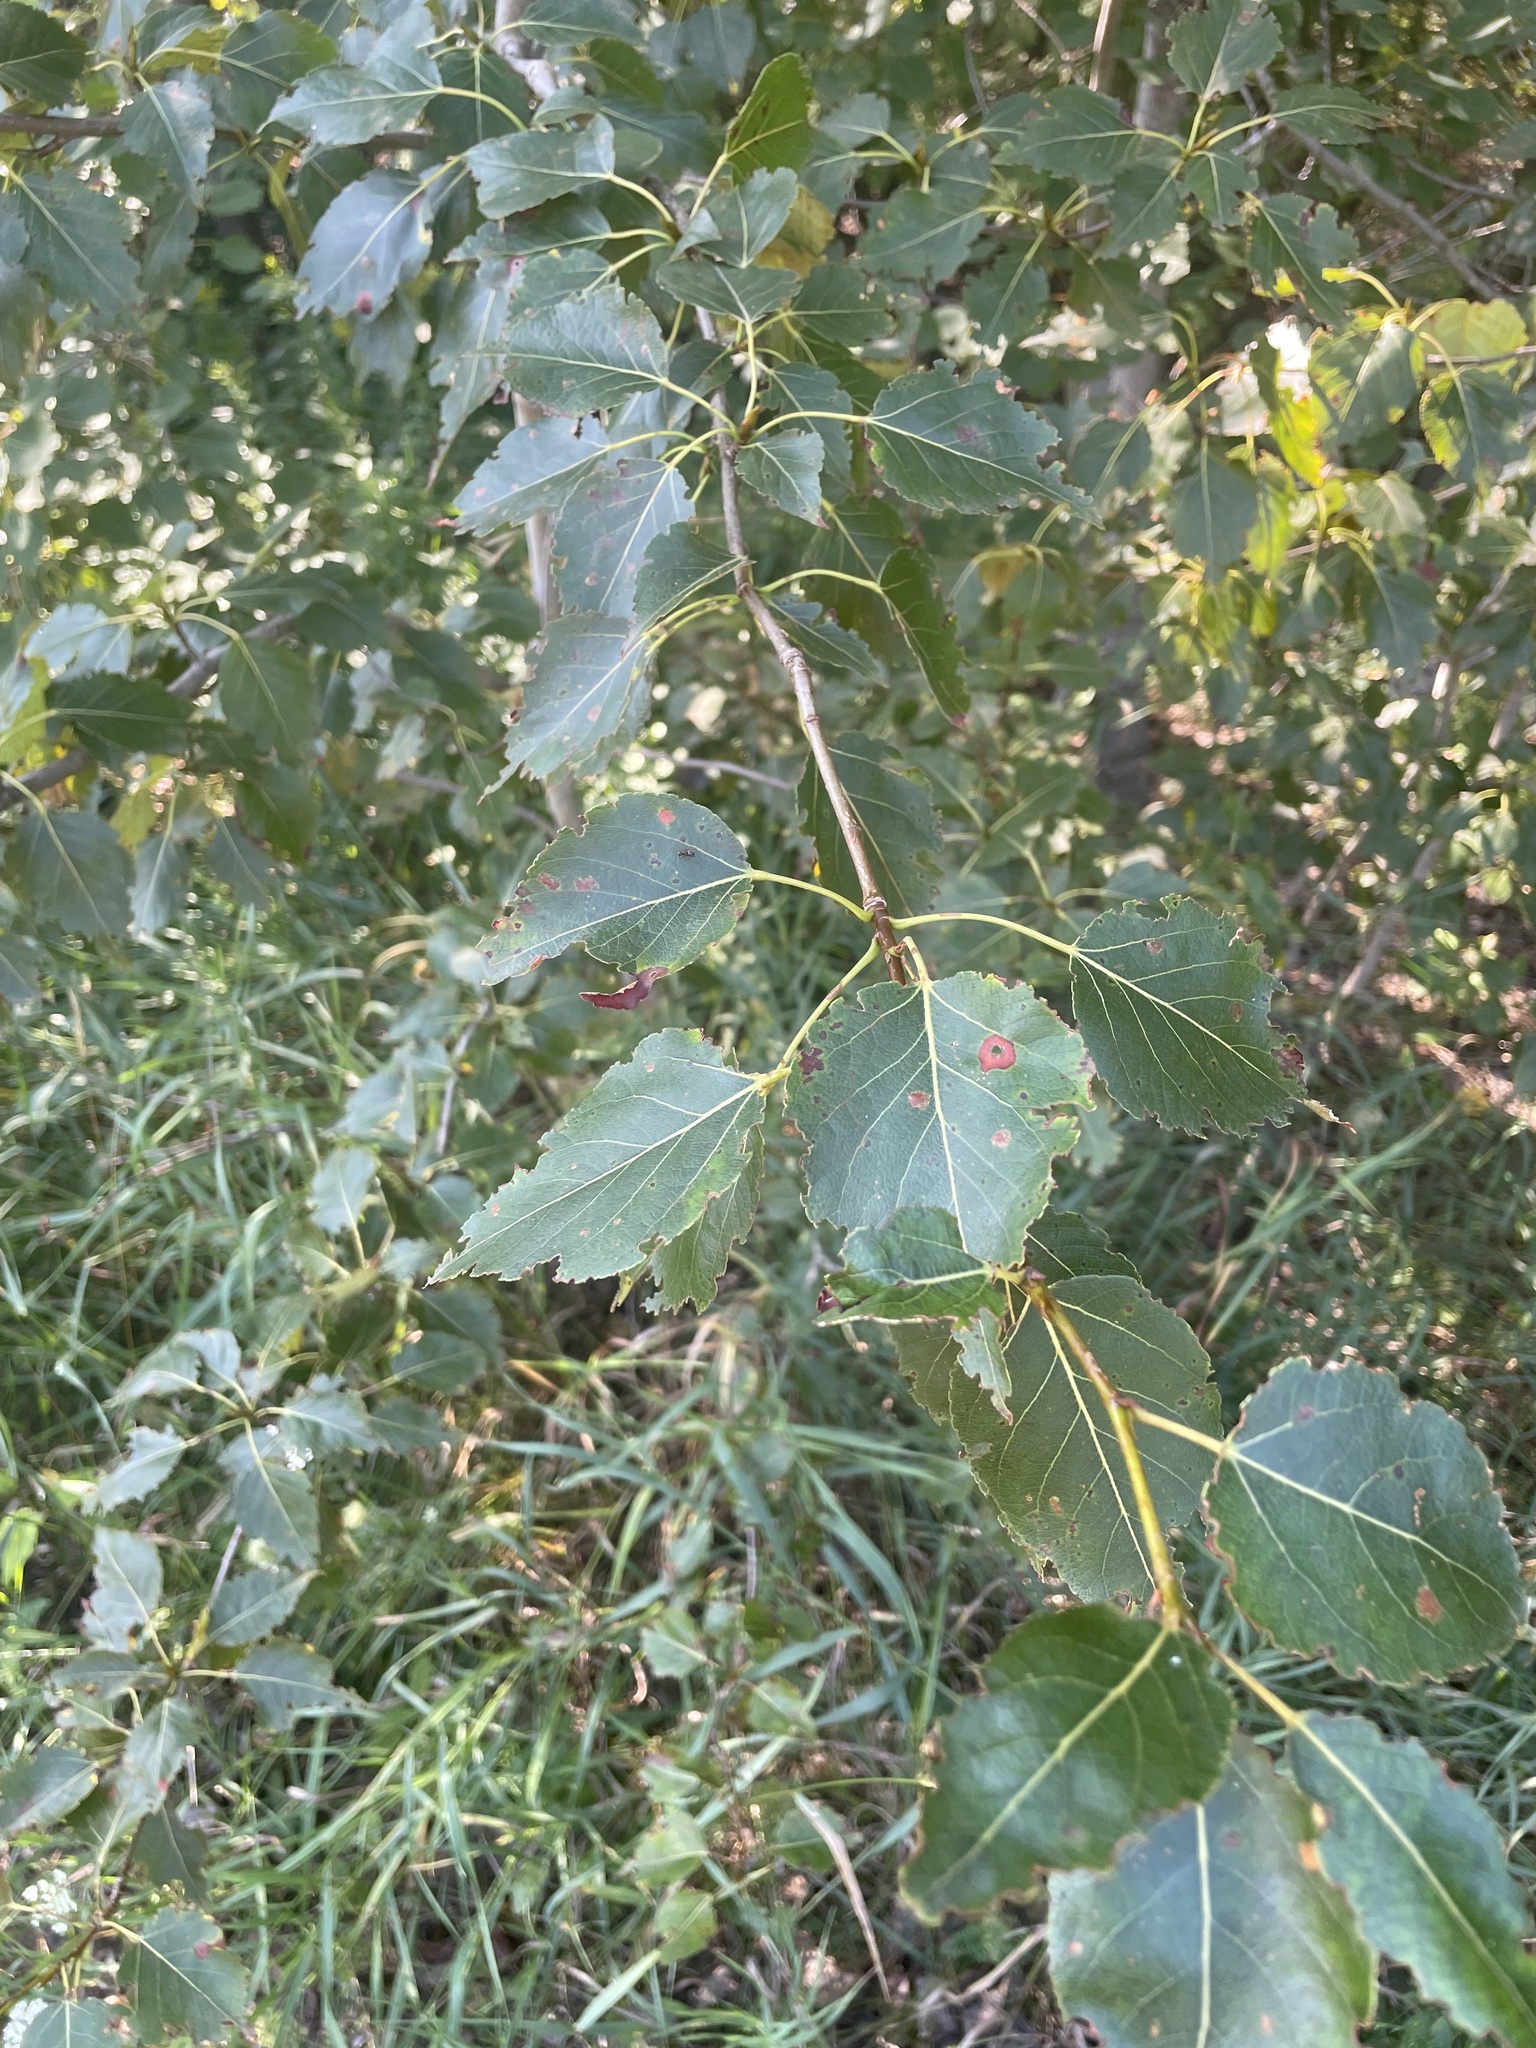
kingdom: Plantae
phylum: Tracheophyta
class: Magnoliopsida
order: Malpighiales
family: Salicaceae
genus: Populus
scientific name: Populus balsamifera
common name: Balsam poplar
